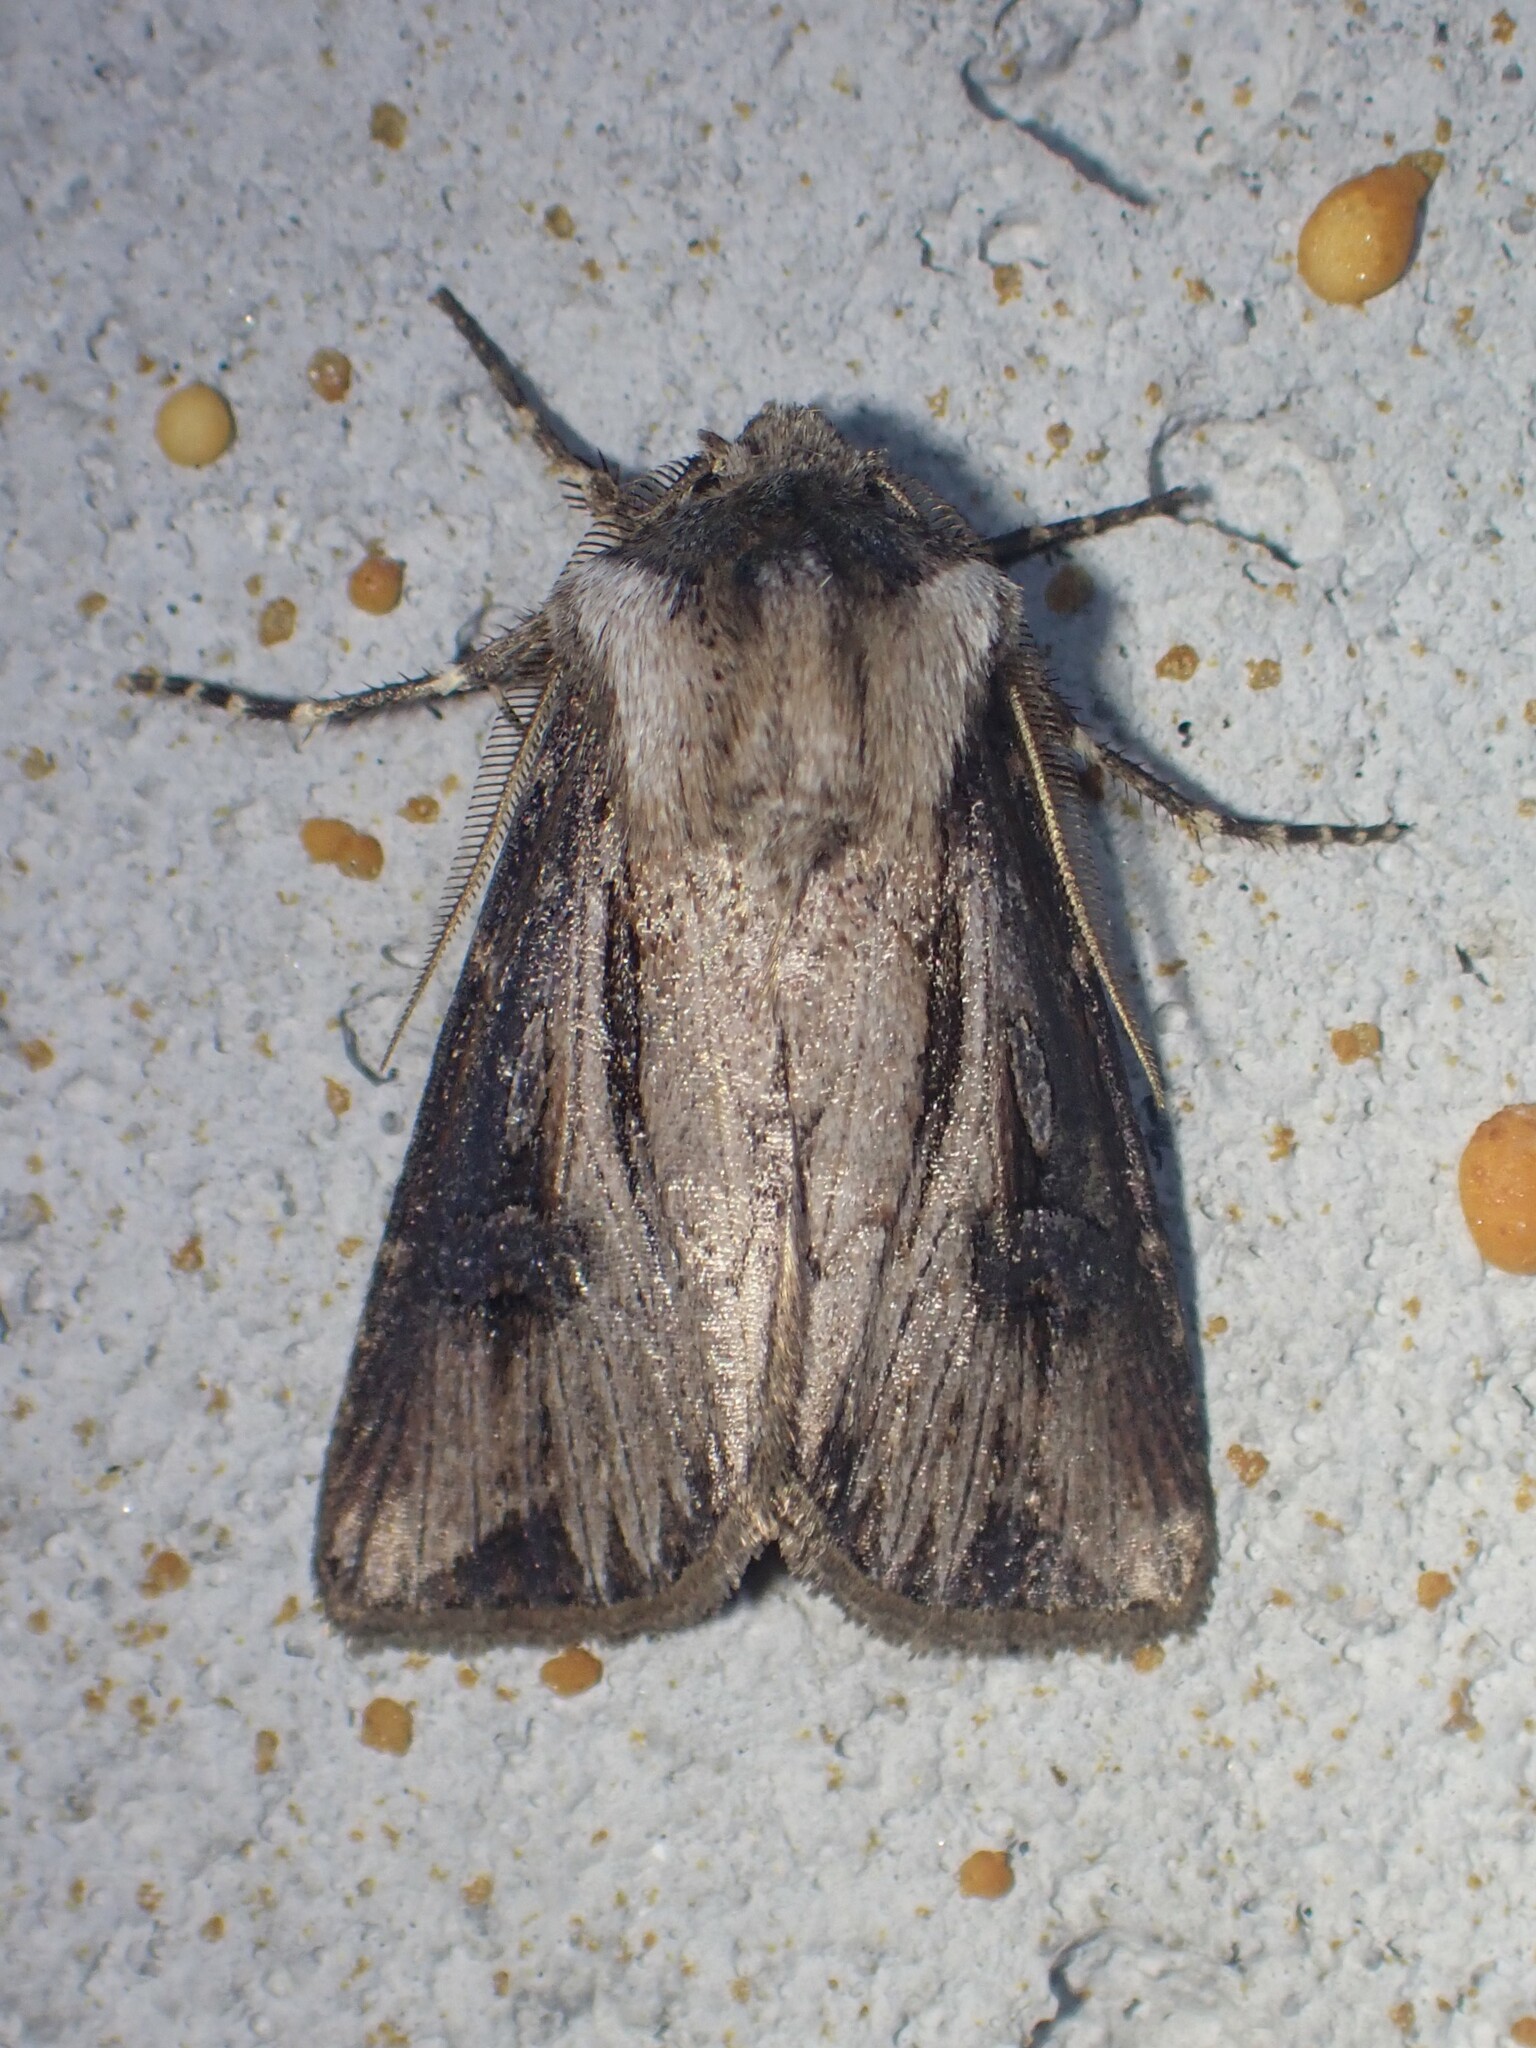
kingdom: Animalia
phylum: Arthropoda
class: Insecta
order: Lepidoptera
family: Noctuidae
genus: Agrotis
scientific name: Agrotis venerabilis
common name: Venerable dart
